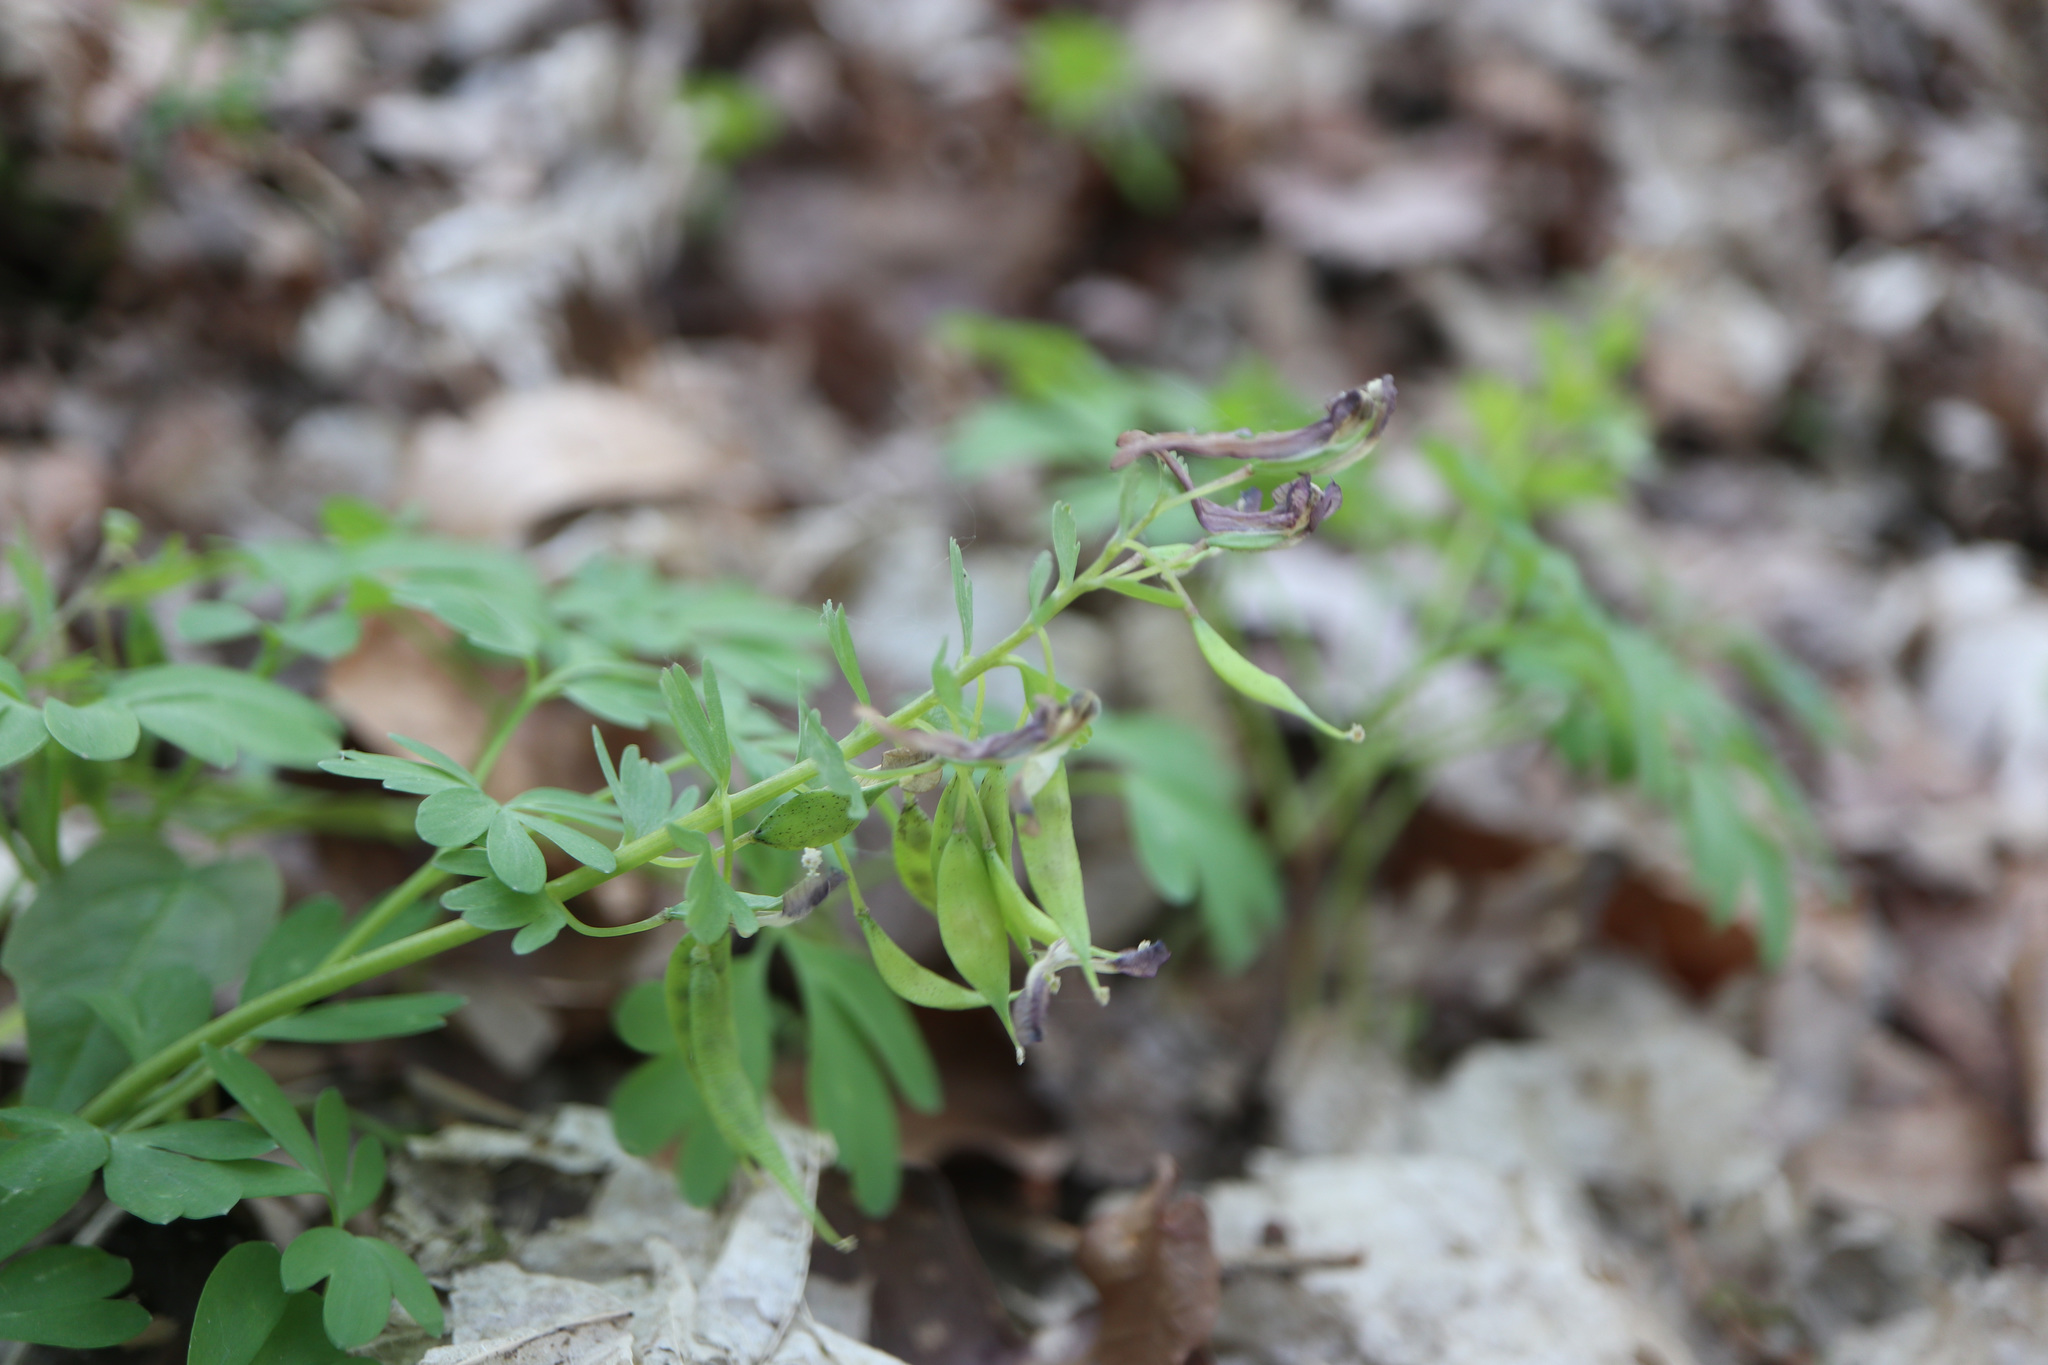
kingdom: Plantae
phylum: Tracheophyta
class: Magnoliopsida
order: Ranunculales
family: Papaveraceae
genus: Corydalis
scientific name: Corydalis solida
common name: Bird-in-a-bush
